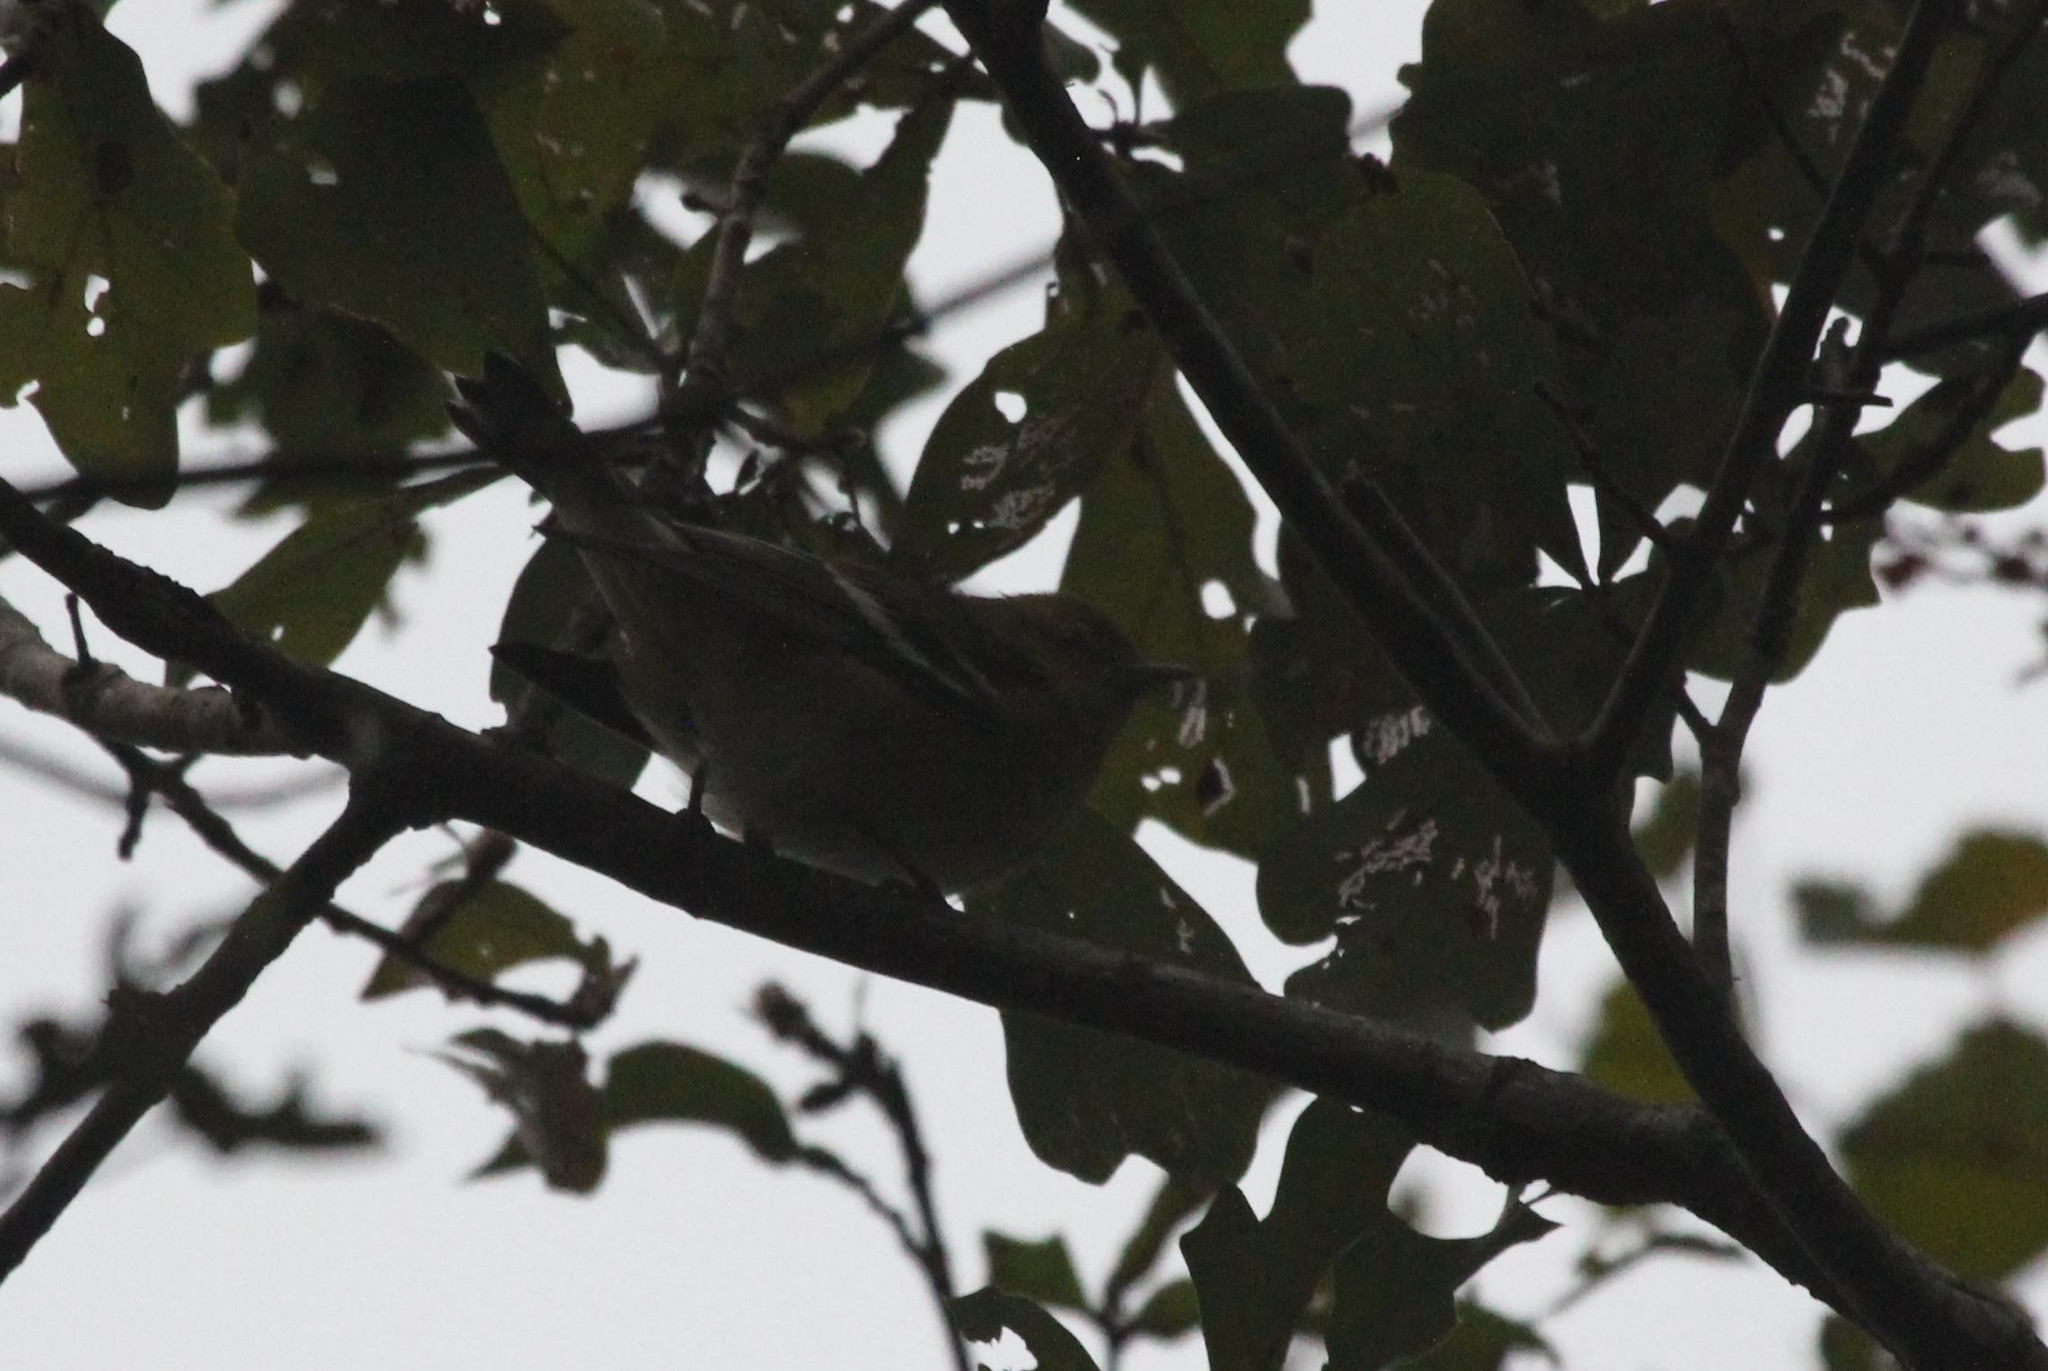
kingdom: Animalia
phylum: Chordata
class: Aves
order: Passeriformes
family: Parulidae
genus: Setophaga
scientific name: Setophaga castanea
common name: Bay-breasted warbler
